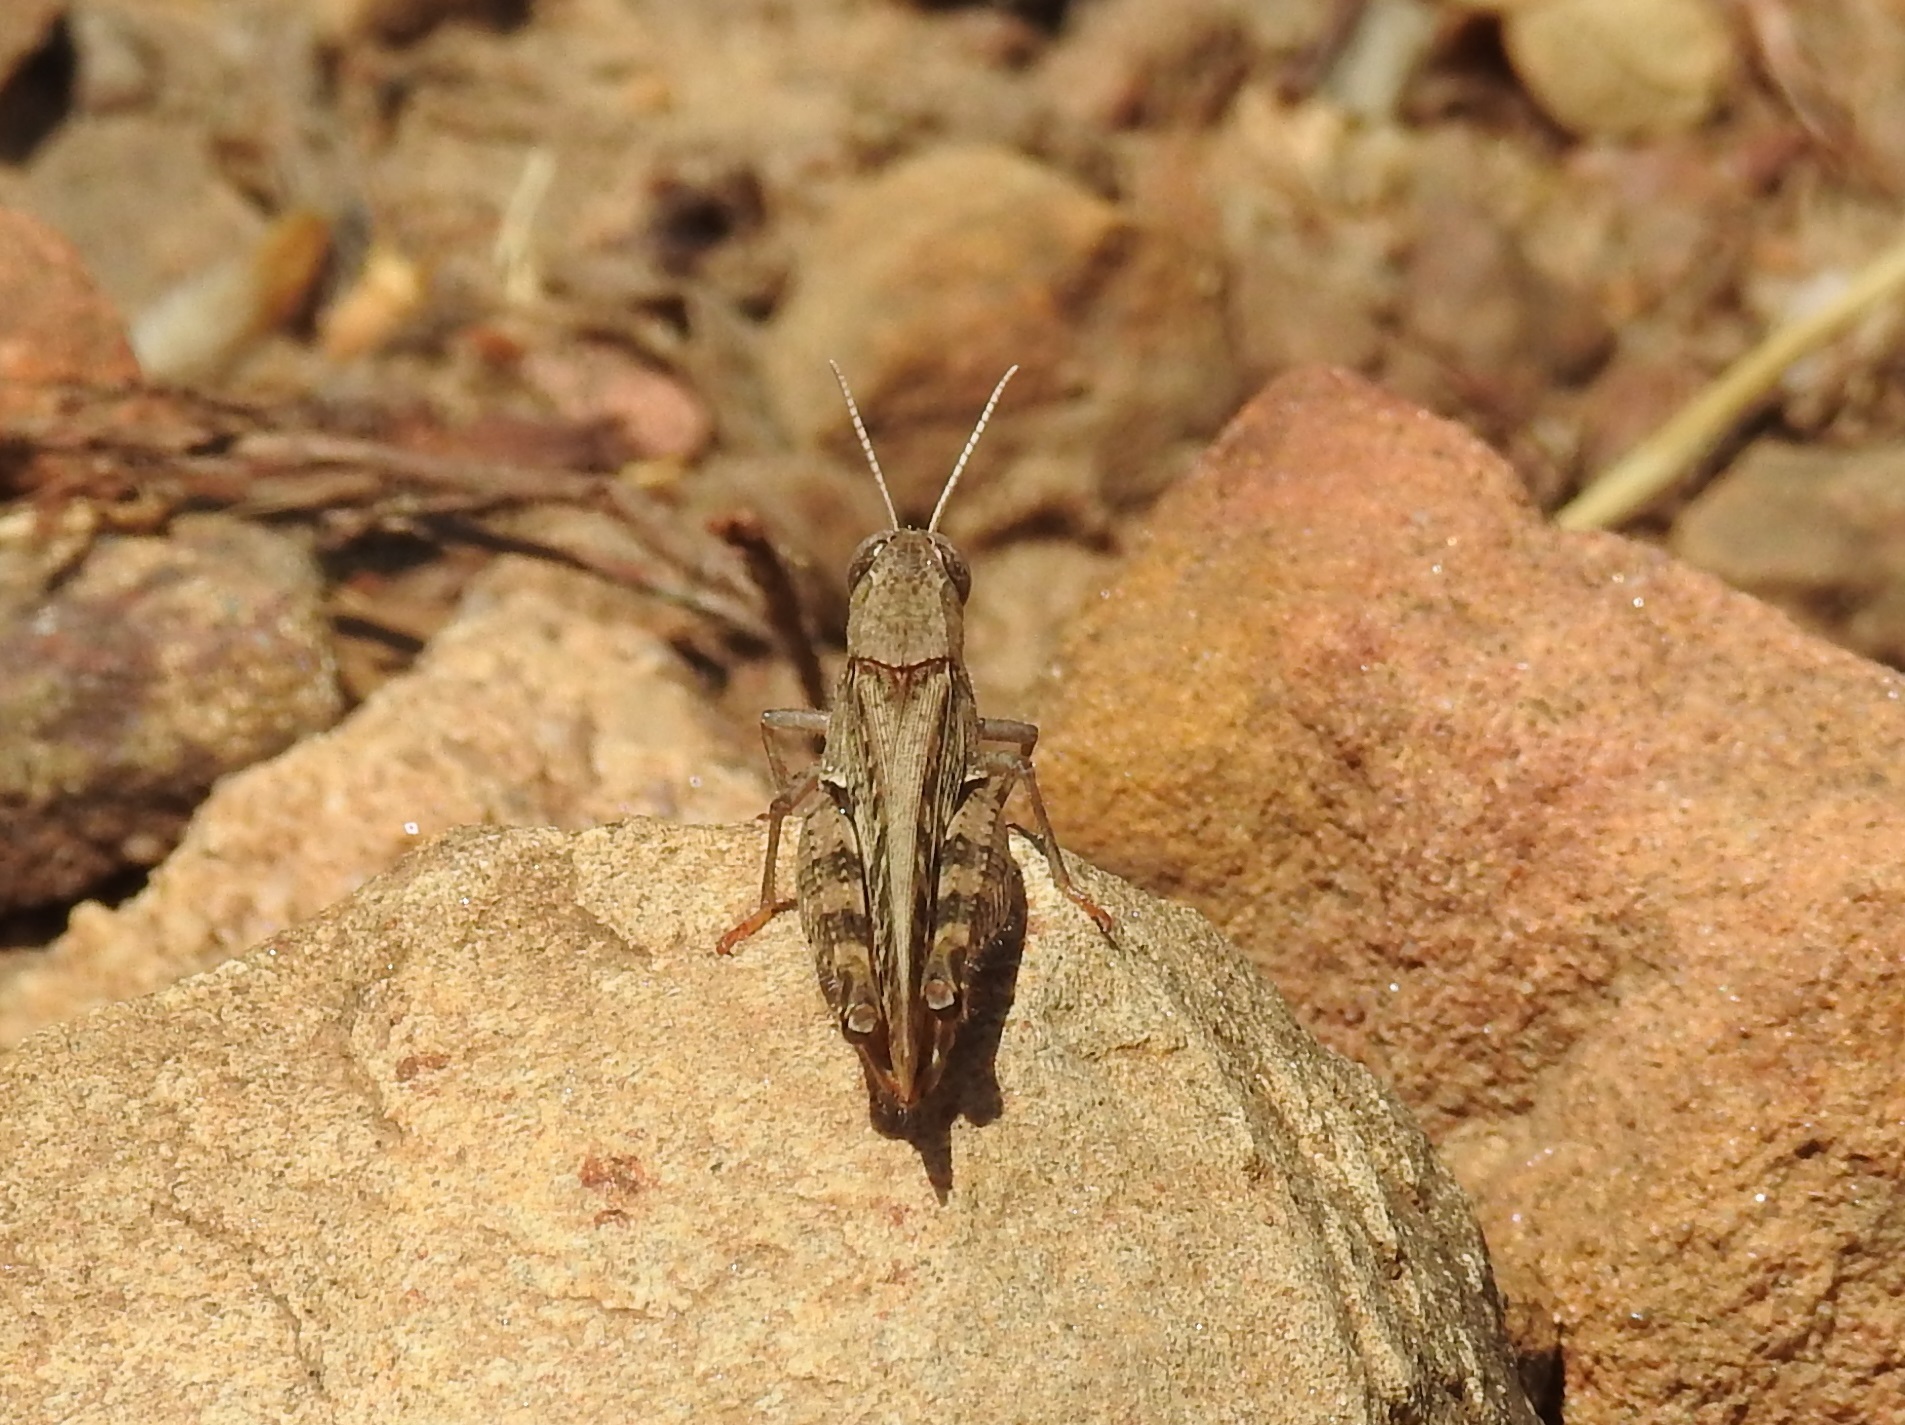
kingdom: Animalia
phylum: Arthropoda
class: Insecta
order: Orthoptera
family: Acrididae
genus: Calliptamus
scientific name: Calliptamus barbarus
